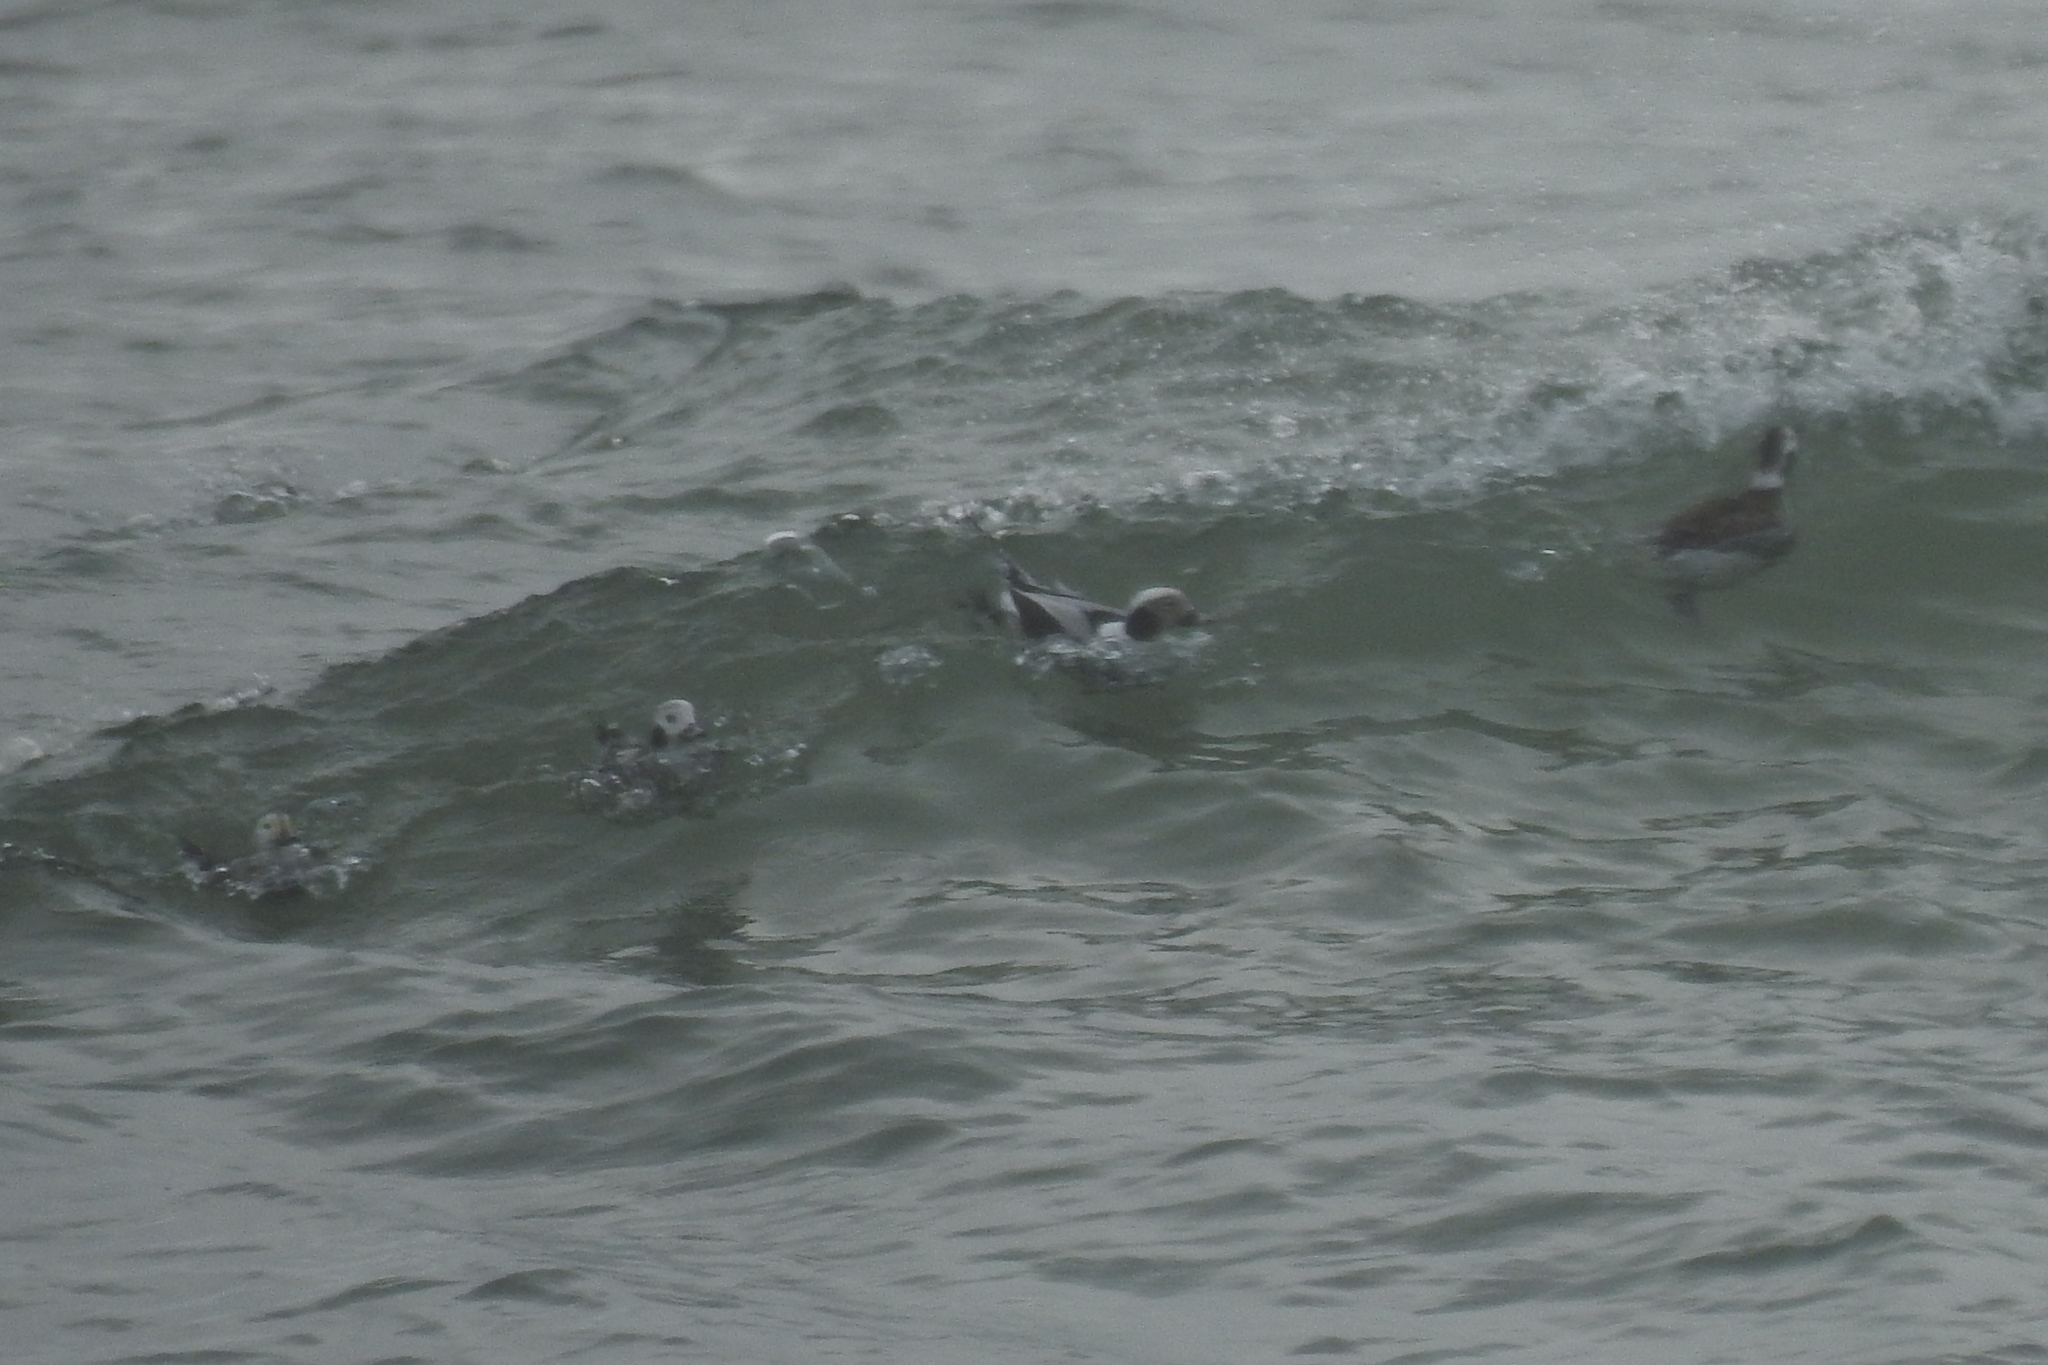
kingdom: Animalia
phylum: Chordata
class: Aves
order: Anseriformes
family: Anatidae
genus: Clangula
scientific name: Clangula hyemalis
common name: Long-tailed duck
